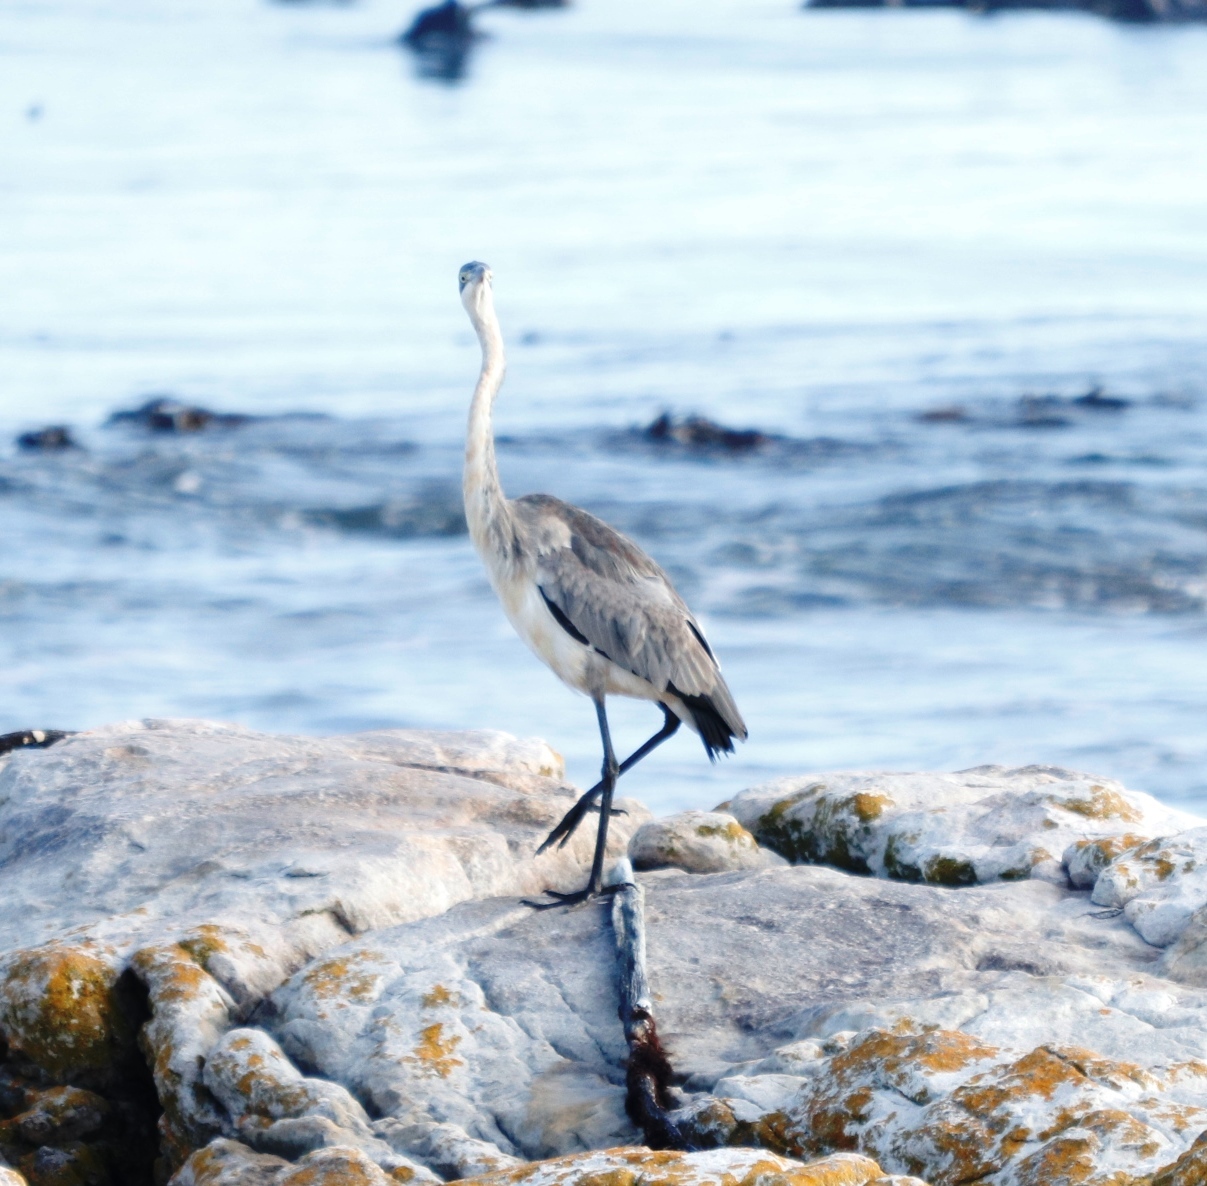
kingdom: Animalia
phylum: Chordata
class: Aves
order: Pelecaniformes
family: Ardeidae
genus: Ardea
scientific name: Ardea melanocephala
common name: Black-headed heron
